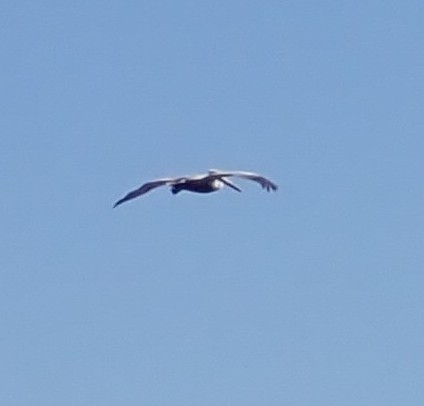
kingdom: Animalia
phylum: Chordata
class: Aves
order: Pelecaniformes
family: Pelecanidae
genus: Pelecanus
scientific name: Pelecanus occidentalis
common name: Brown pelican
